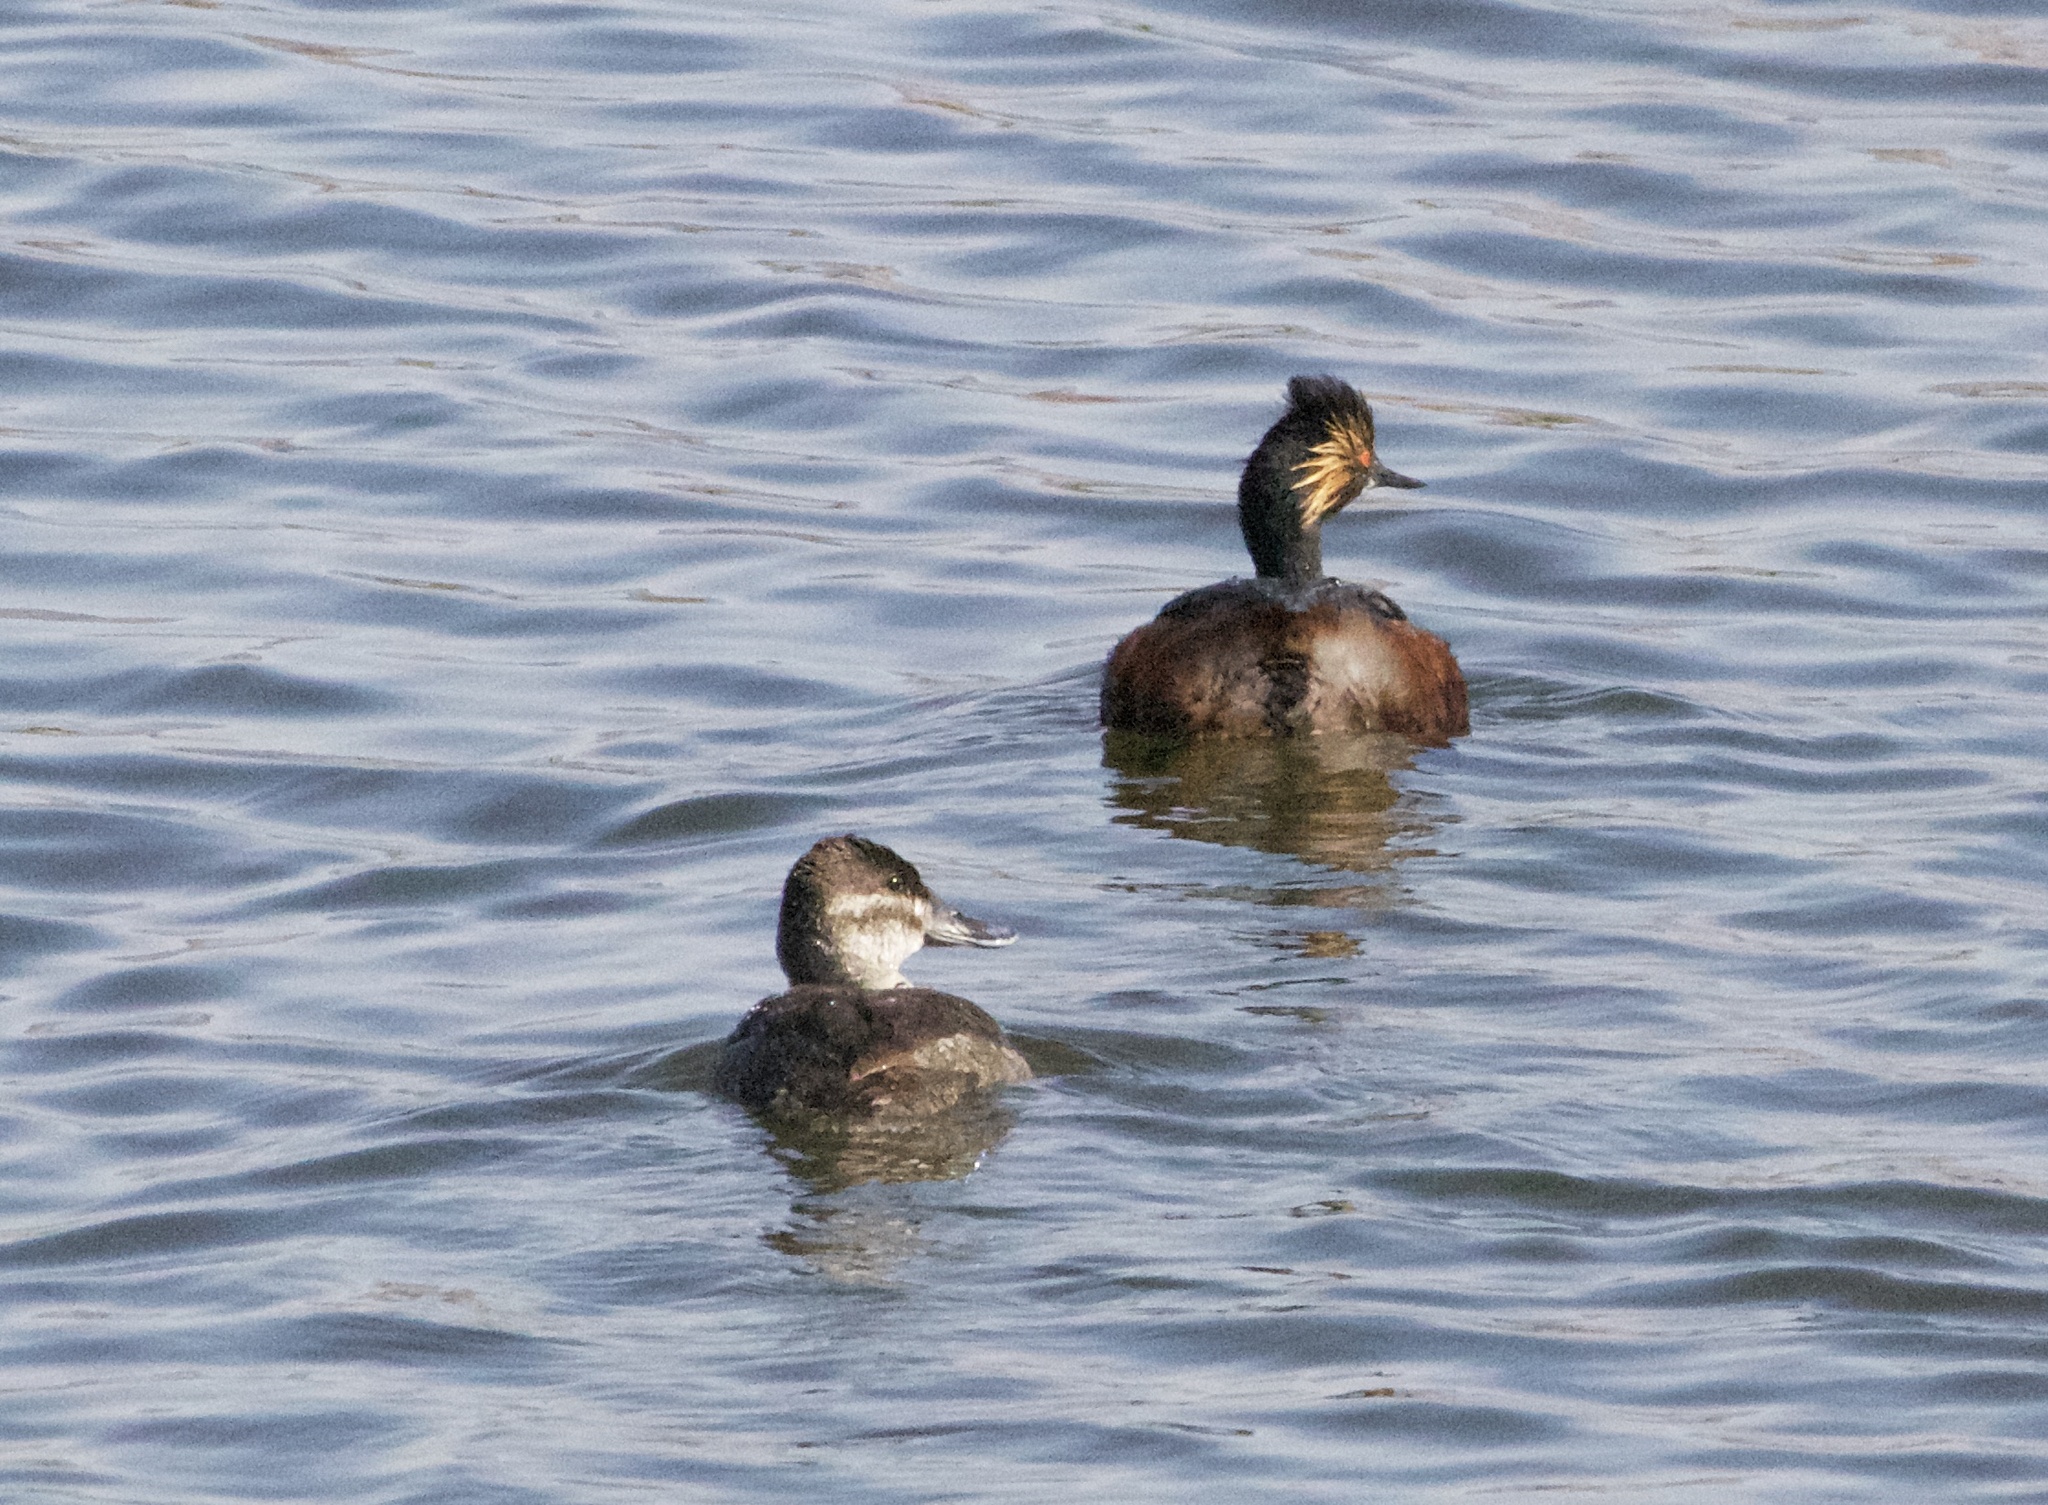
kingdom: Animalia
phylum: Chordata
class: Aves
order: Podicipediformes
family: Podicipedidae
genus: Podiceps
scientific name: Podiceps nigricollis
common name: Black-necked grebe
